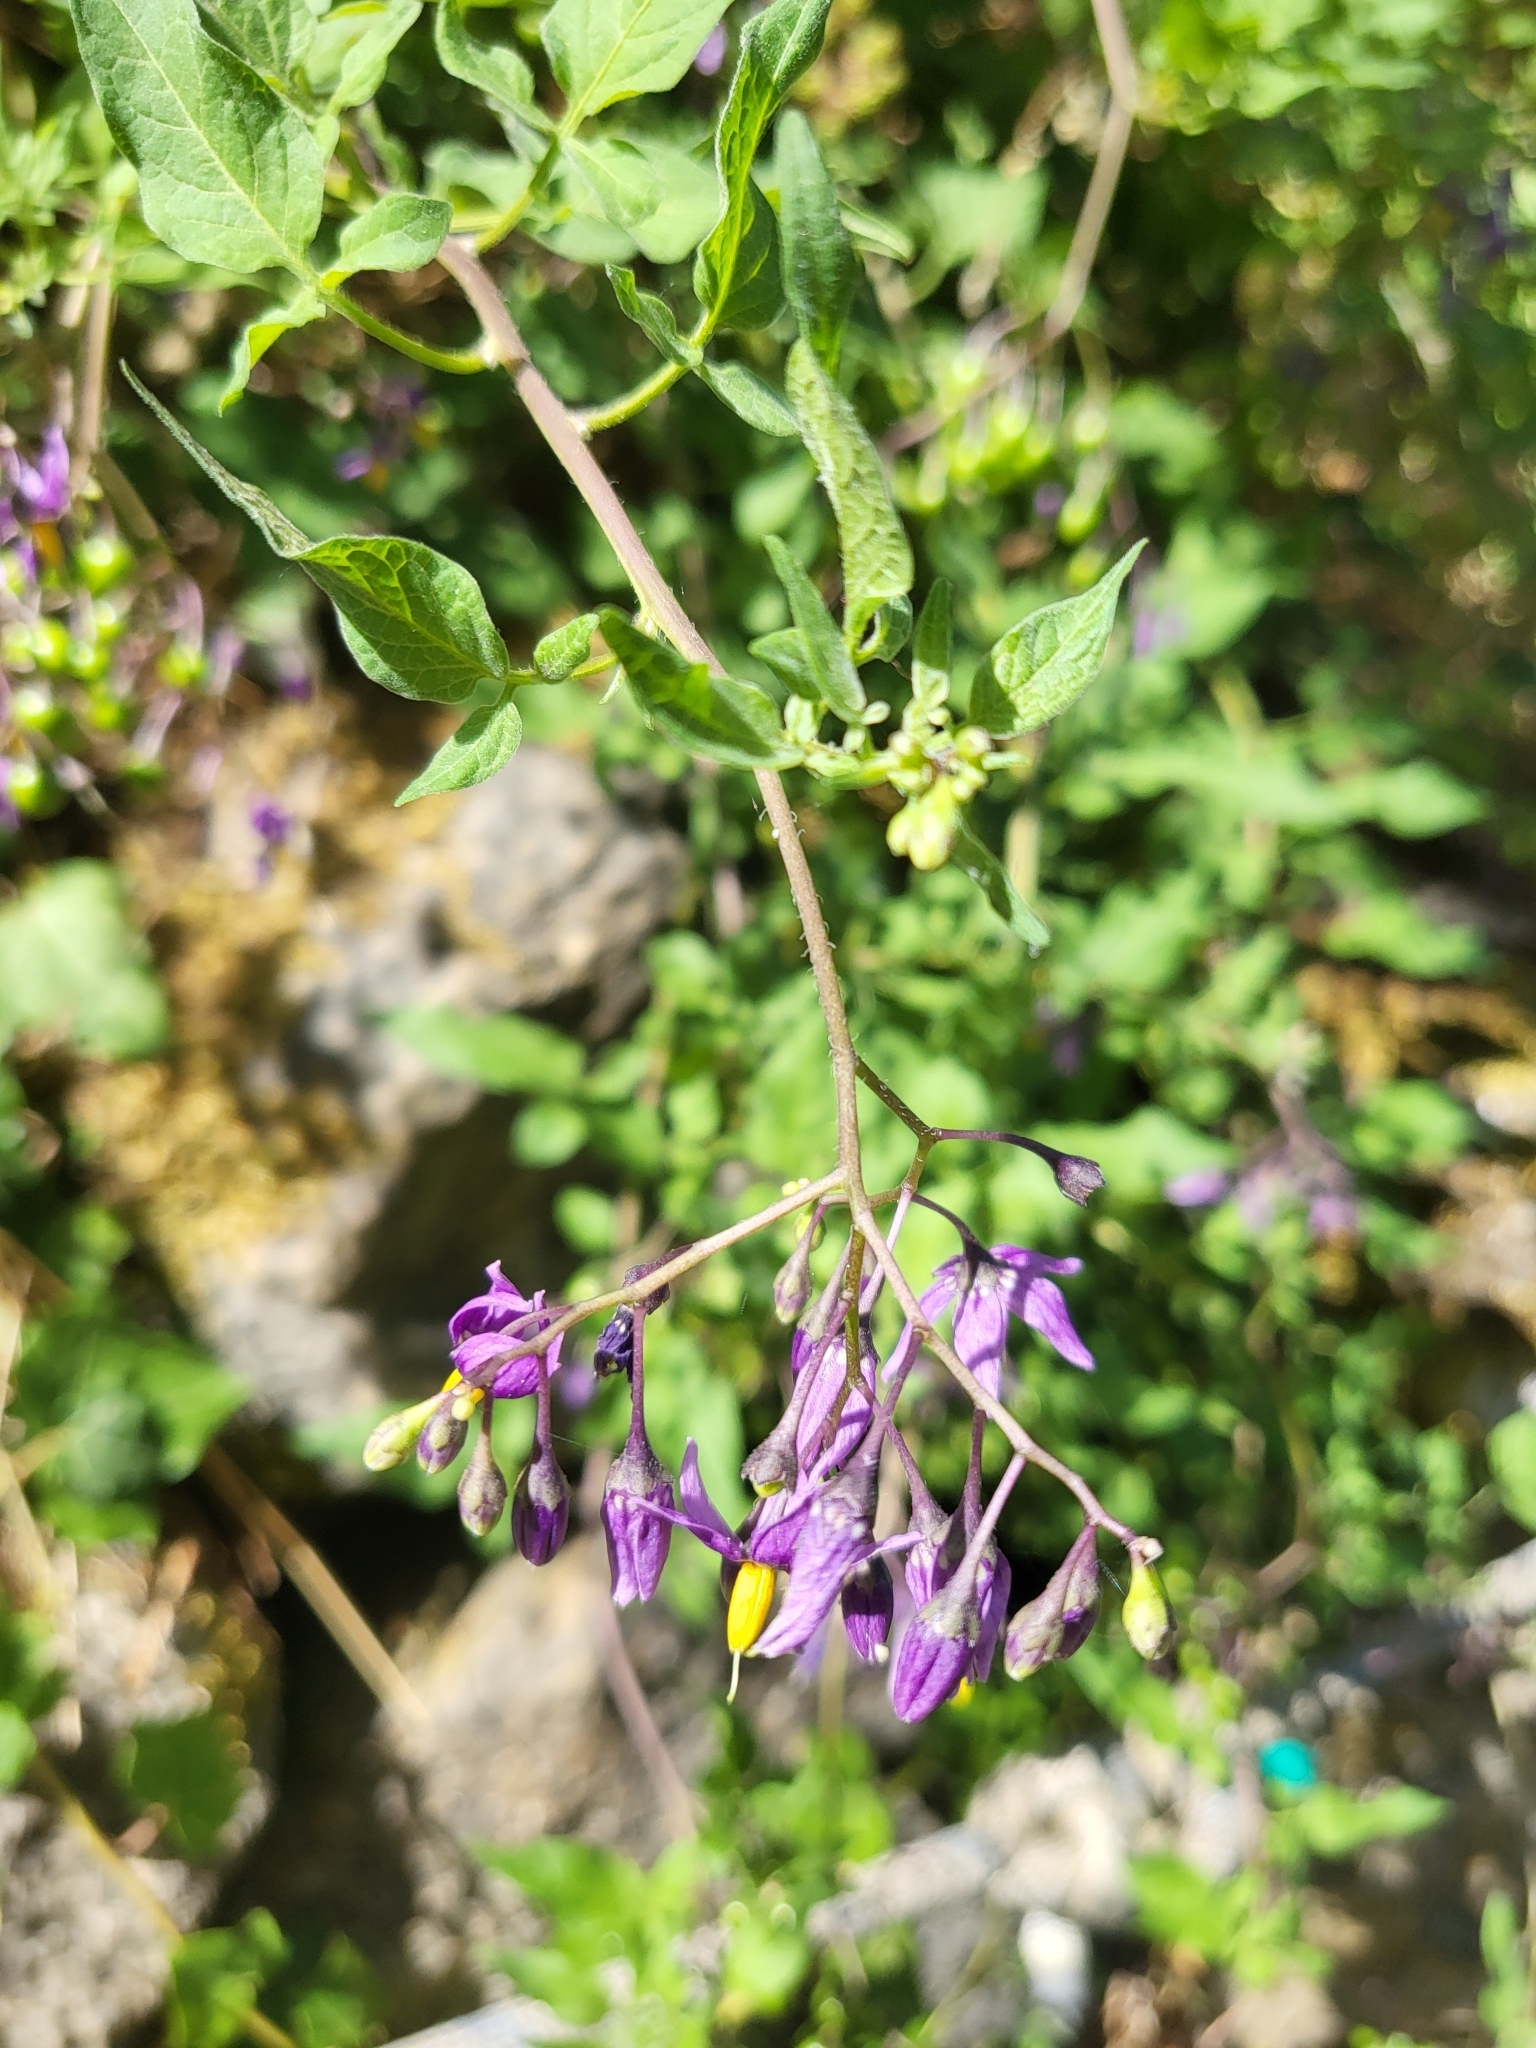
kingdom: Plantae
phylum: Tracheophyta
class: Magnoliopsida
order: Solanales
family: Solanaceae
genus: Solanum
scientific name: Solanum dulcamara
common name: Climbing nightshade
